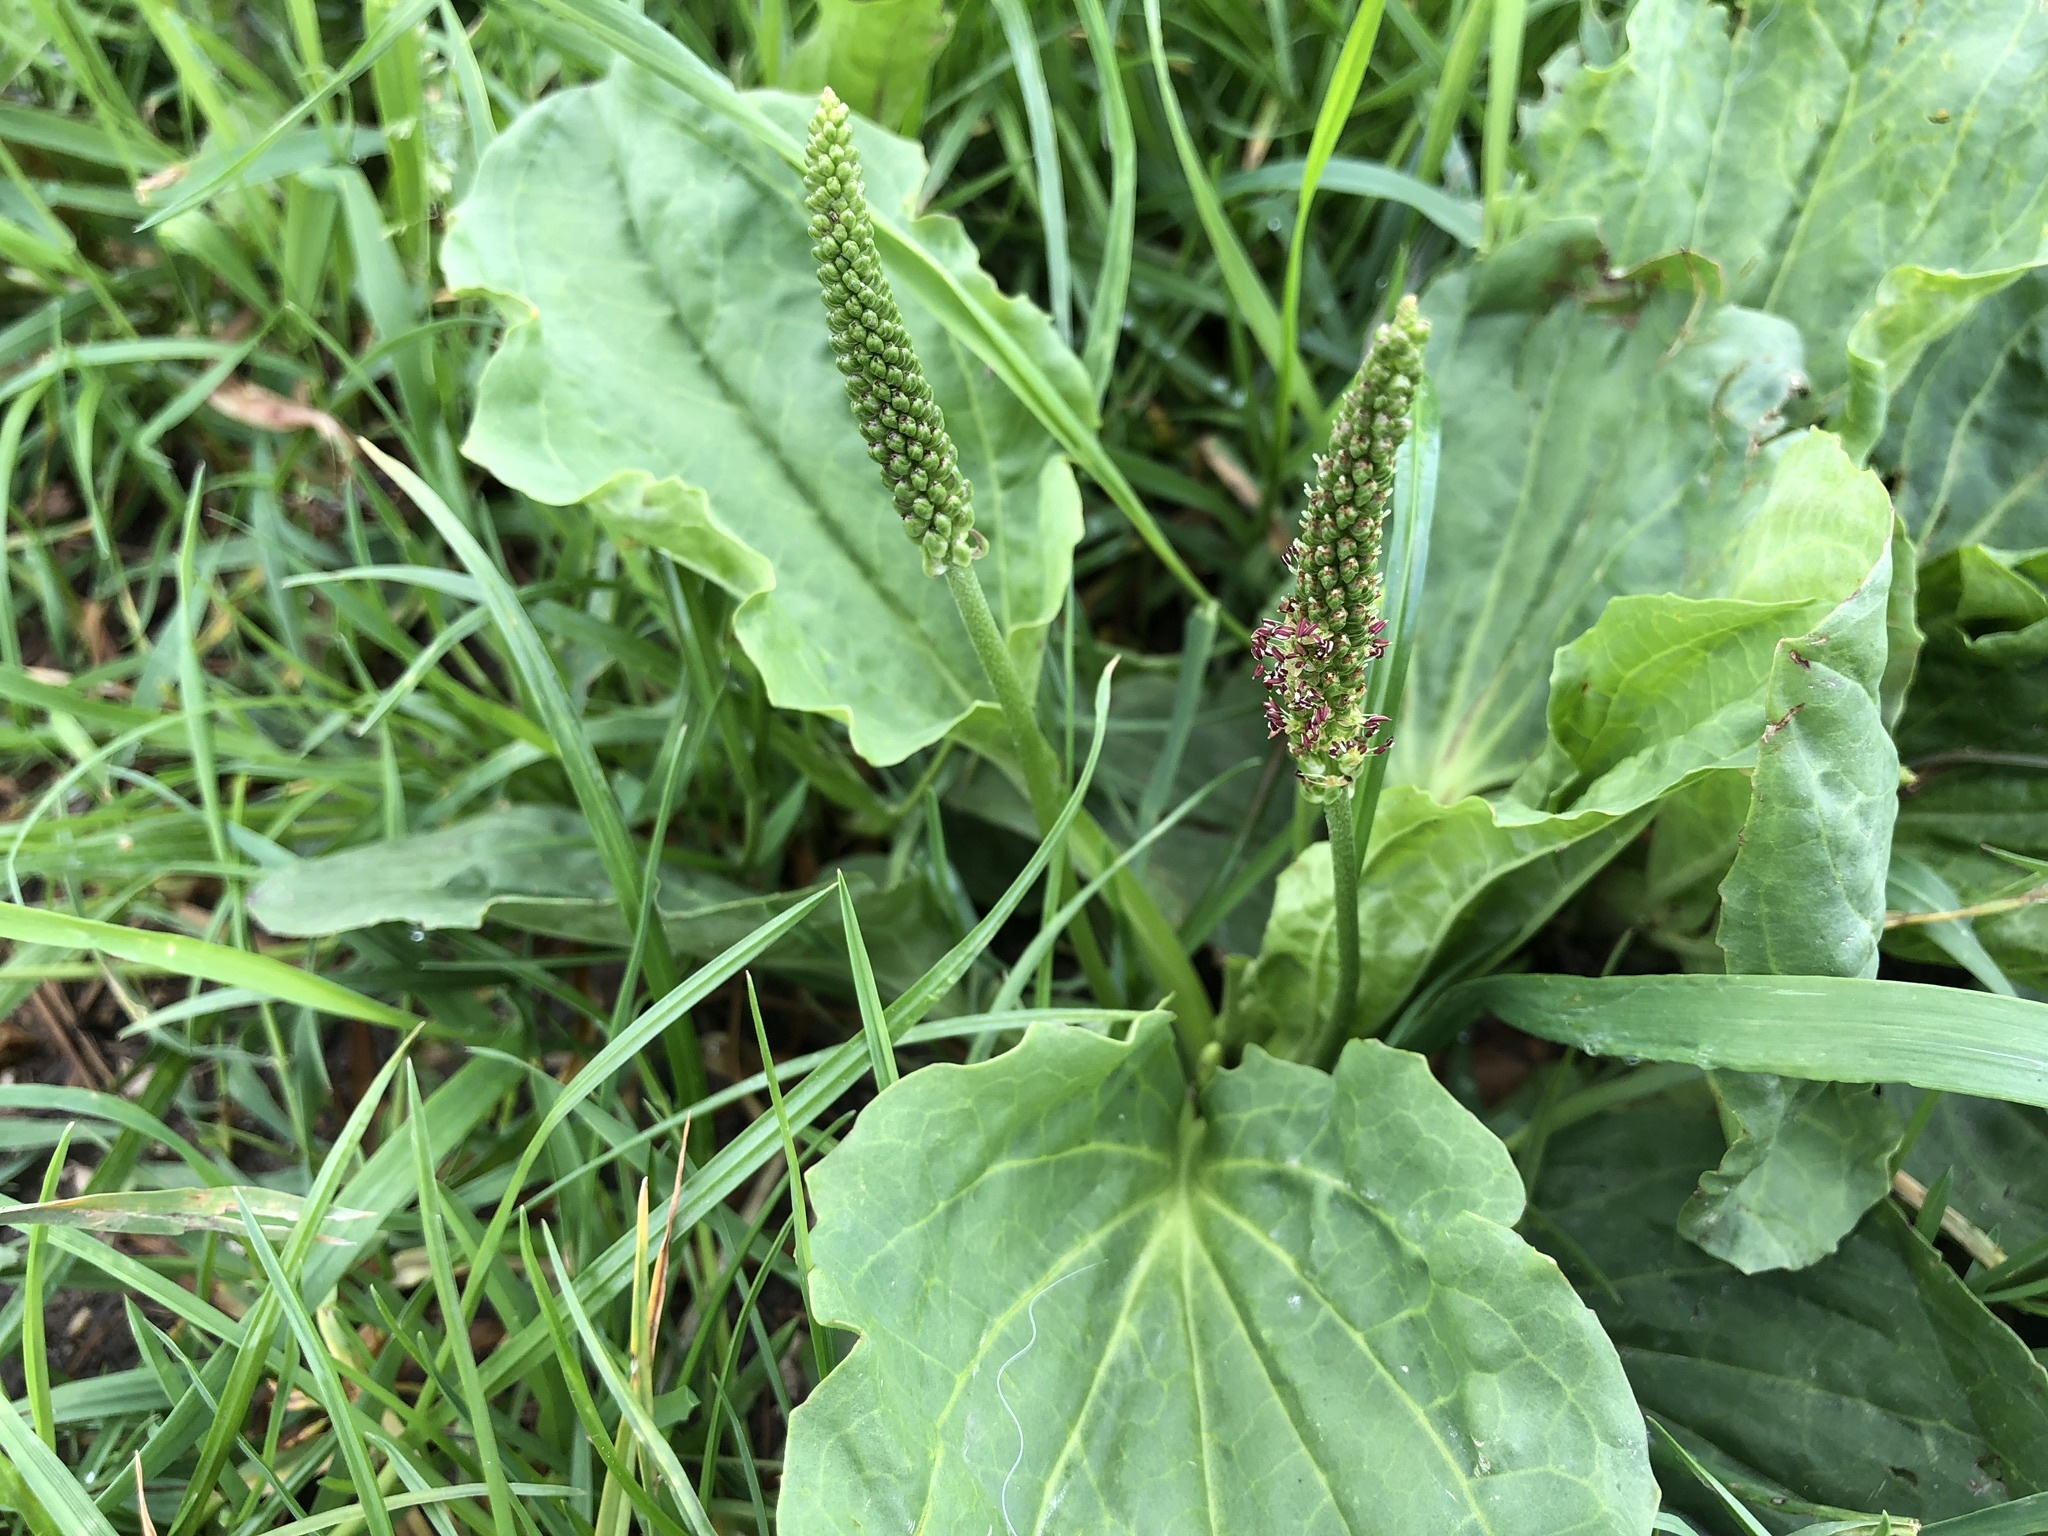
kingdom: Plantae
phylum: Tracheophyta
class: Magnoliopsida
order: Lamiales
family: Plantaginaceae
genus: Plantago
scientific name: Plantago major
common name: Common plantain
